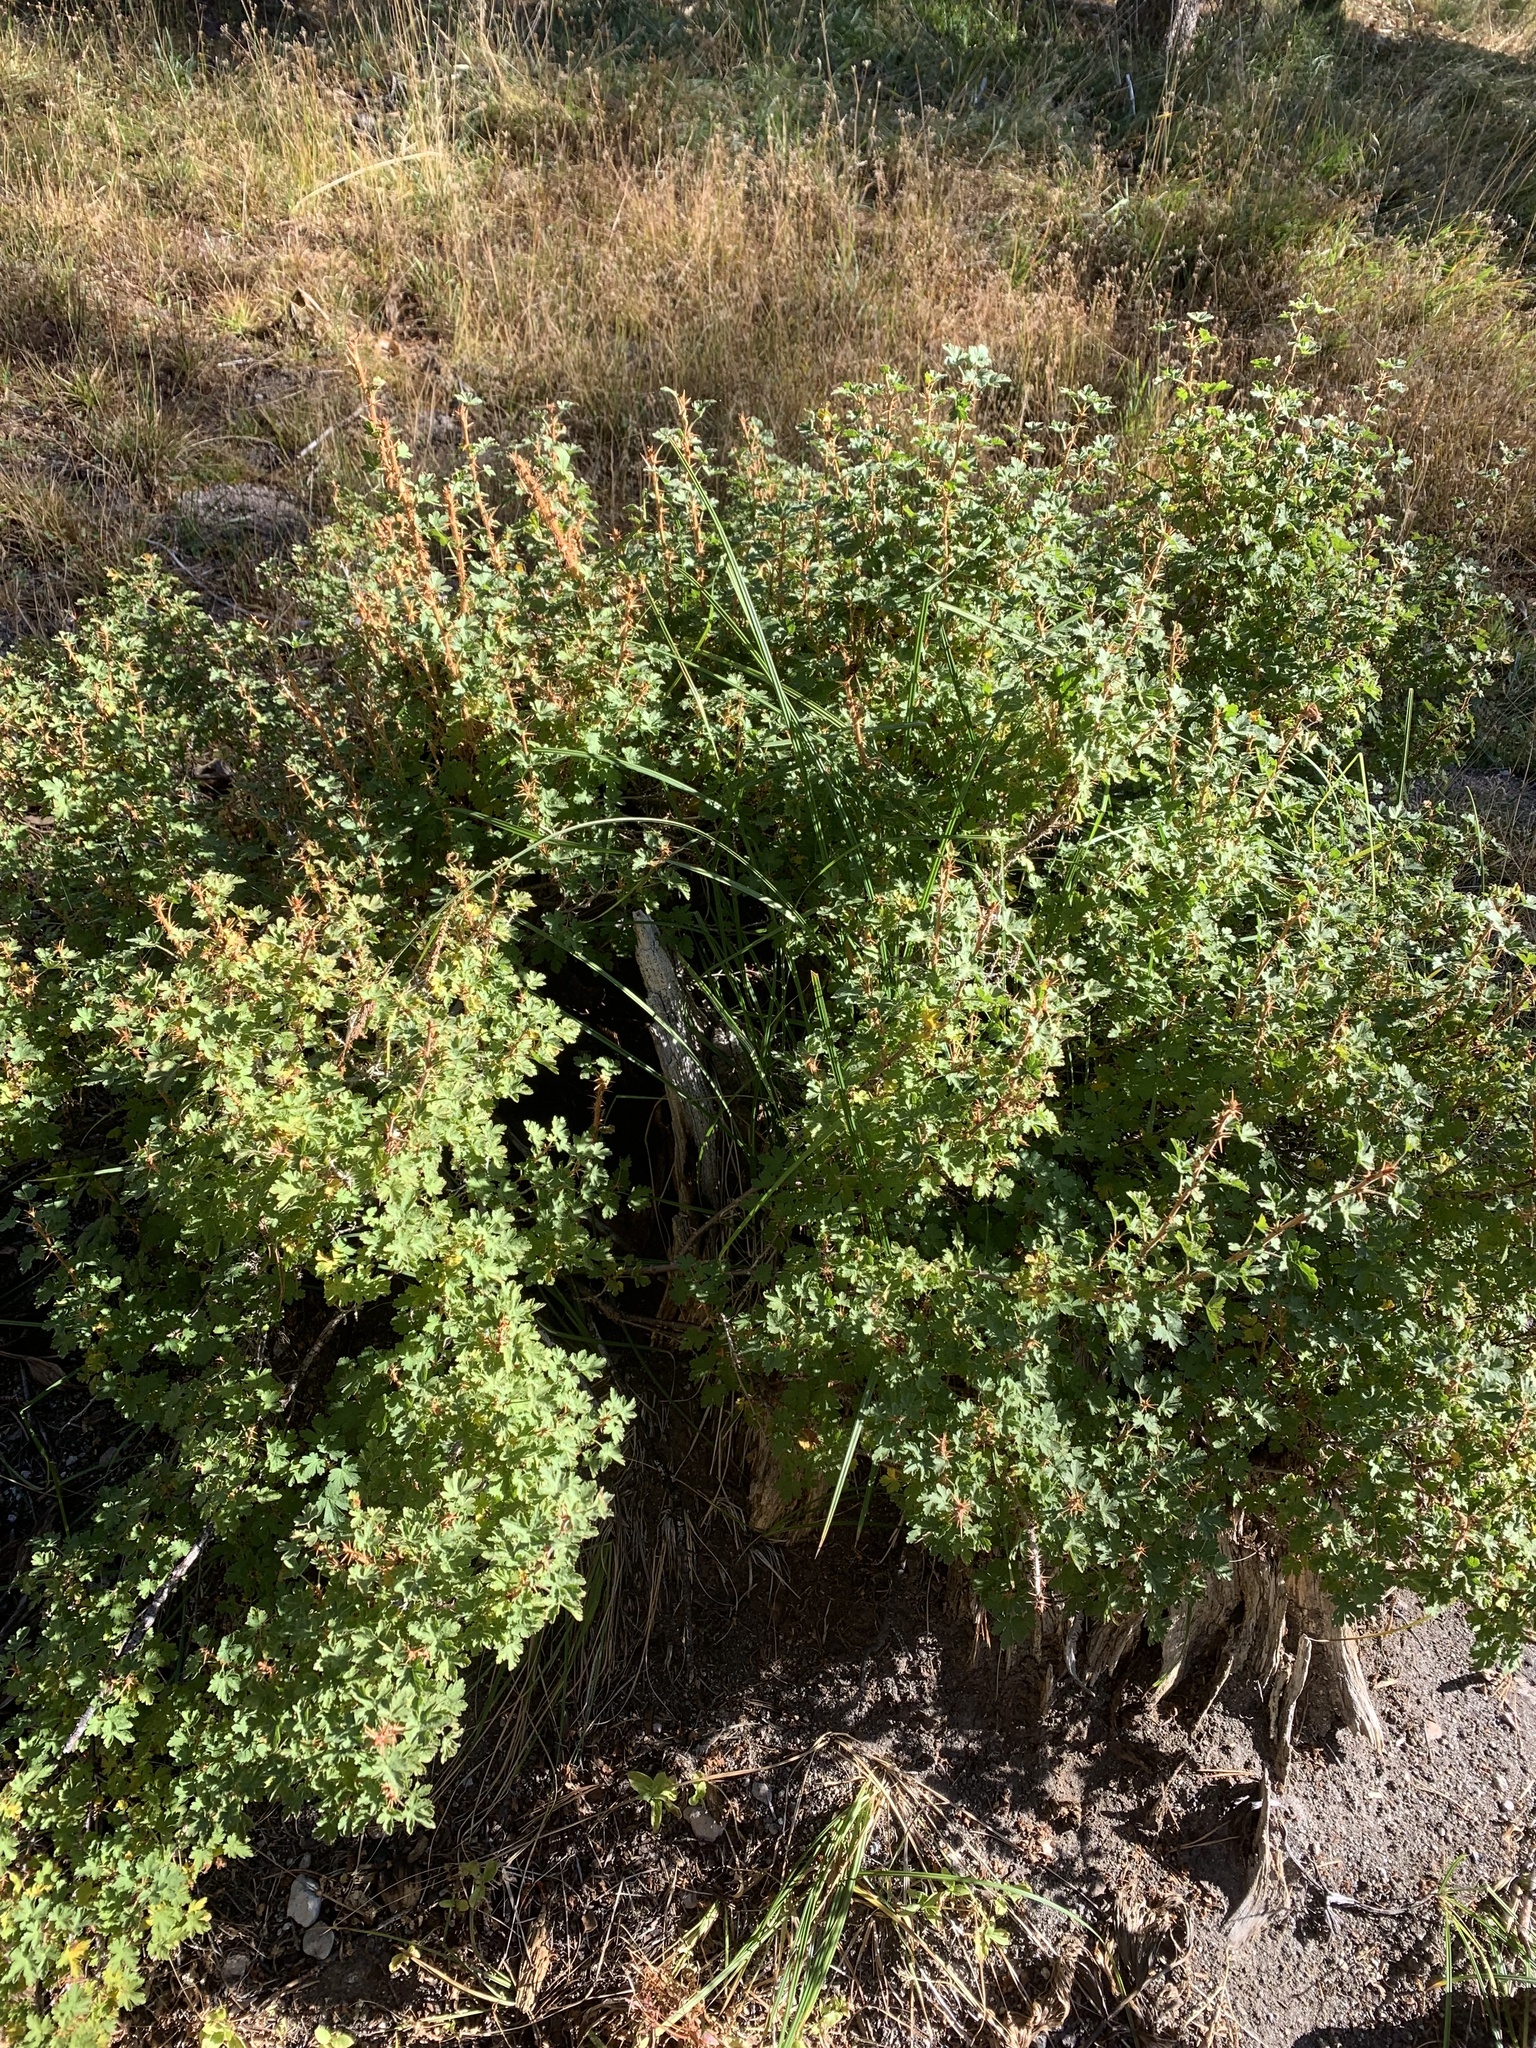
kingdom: Plantae
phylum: Tracheophyta
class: Magnoliopsida
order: Saxifragales
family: Grossulariaceae
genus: Ribes
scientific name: Ribes montigenum
